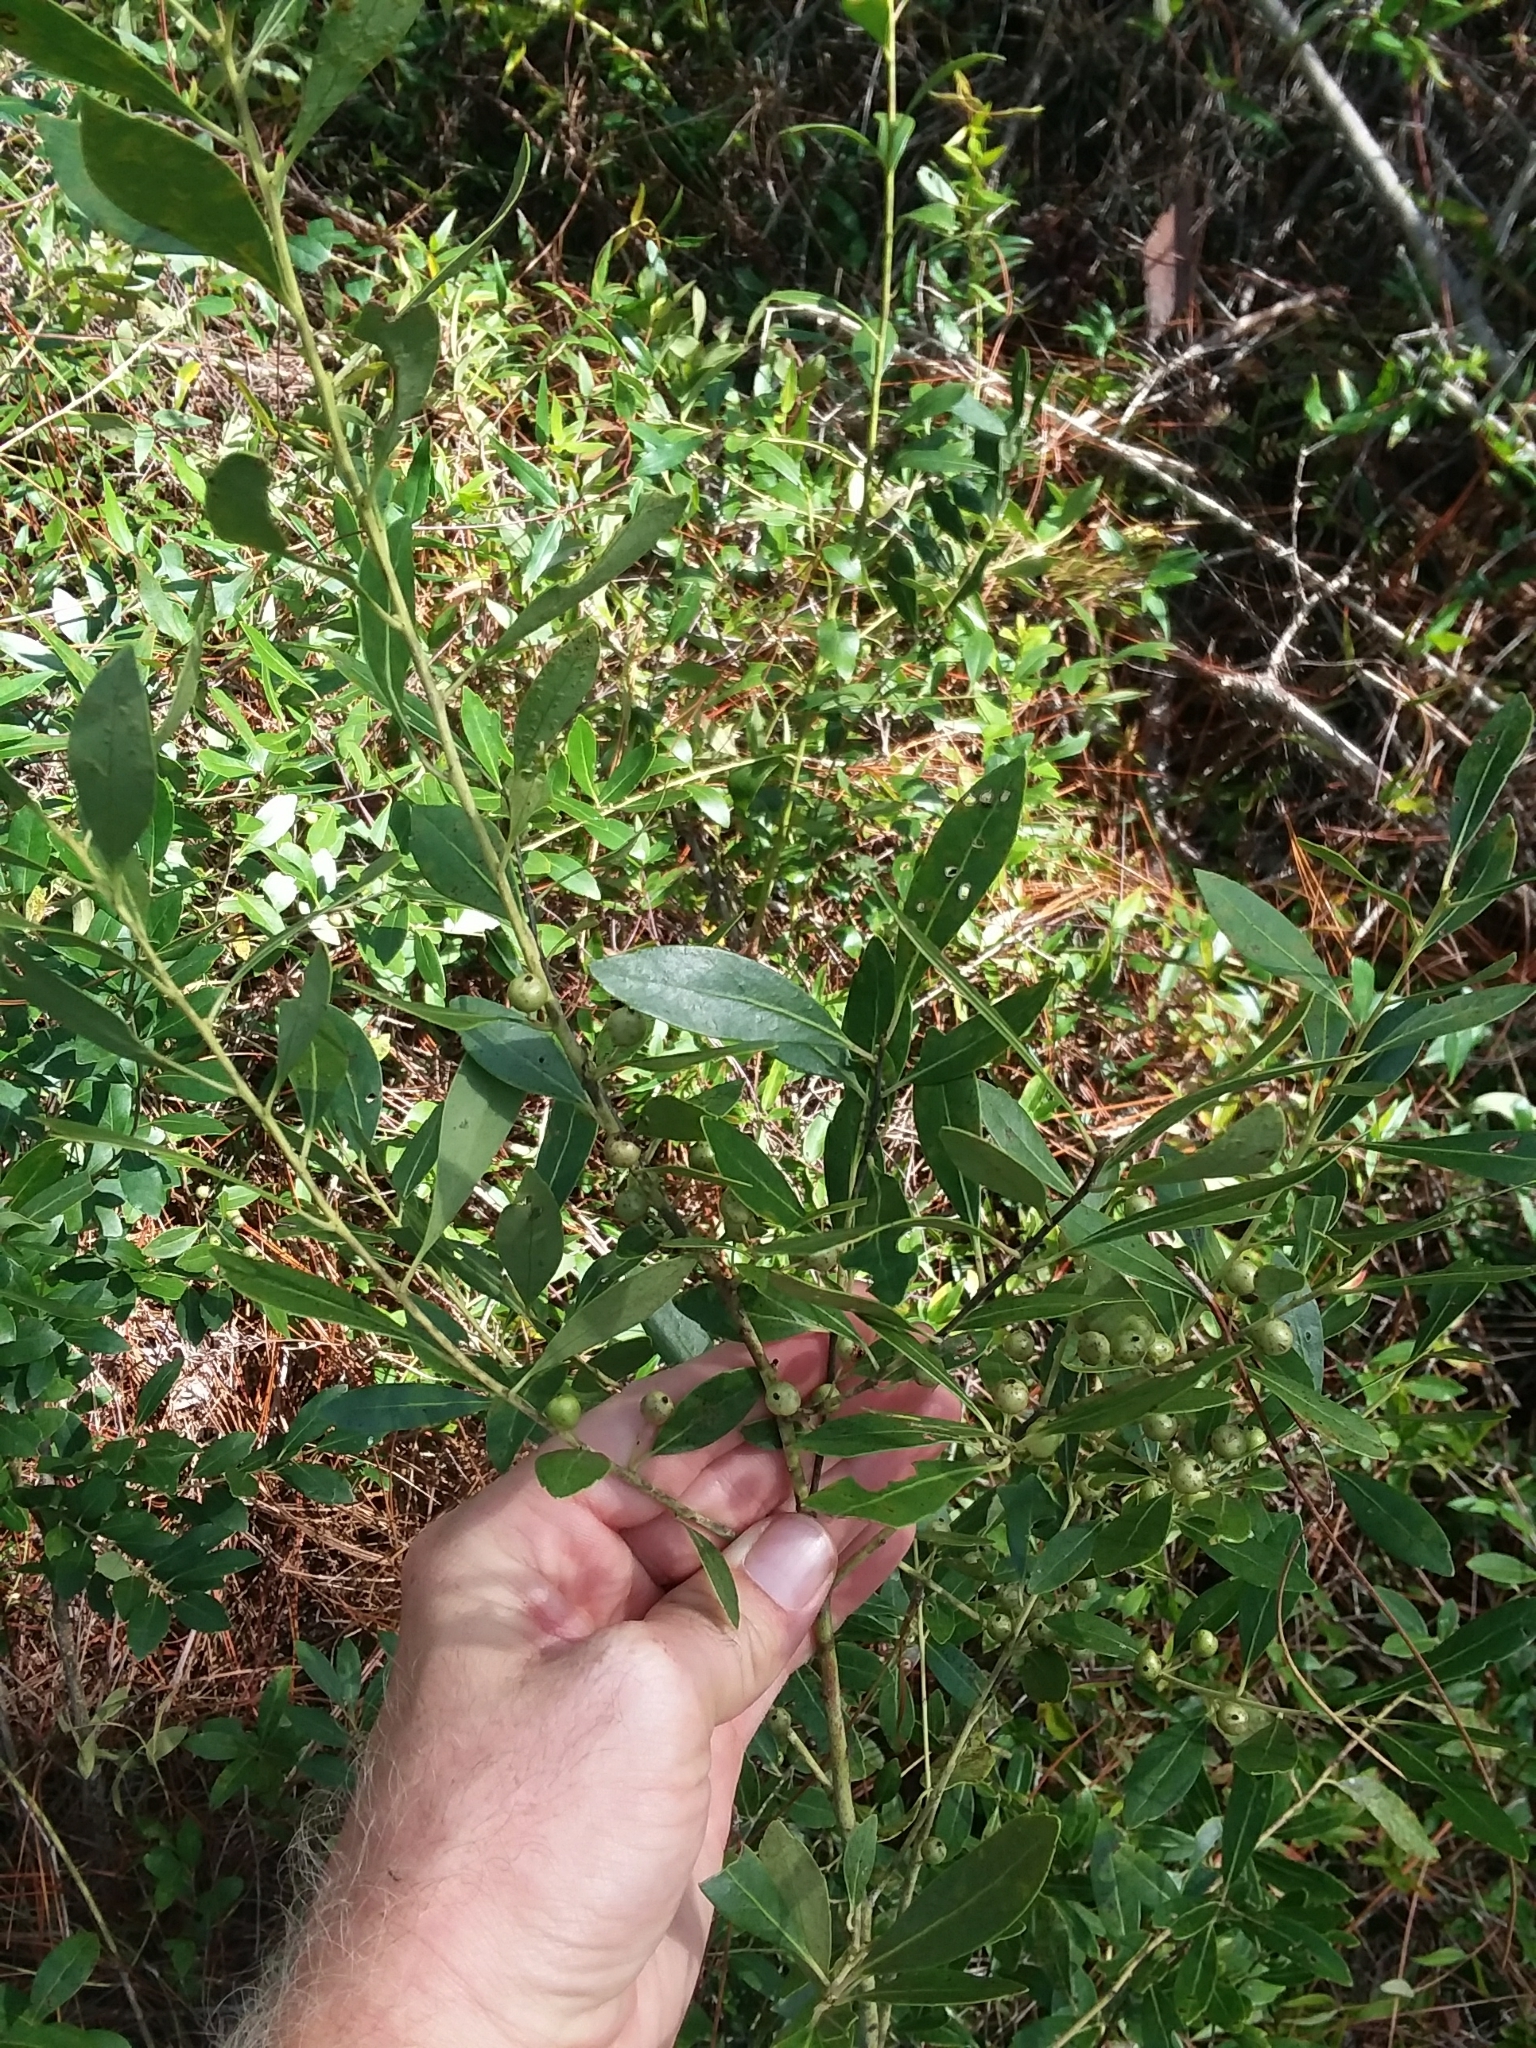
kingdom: Plantae
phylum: Tracheophyta
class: Magnoliopsida
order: Aquifoliales
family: Aquifoliaceae
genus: Ilex
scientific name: Ilex glabra
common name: Bitter gallberry
